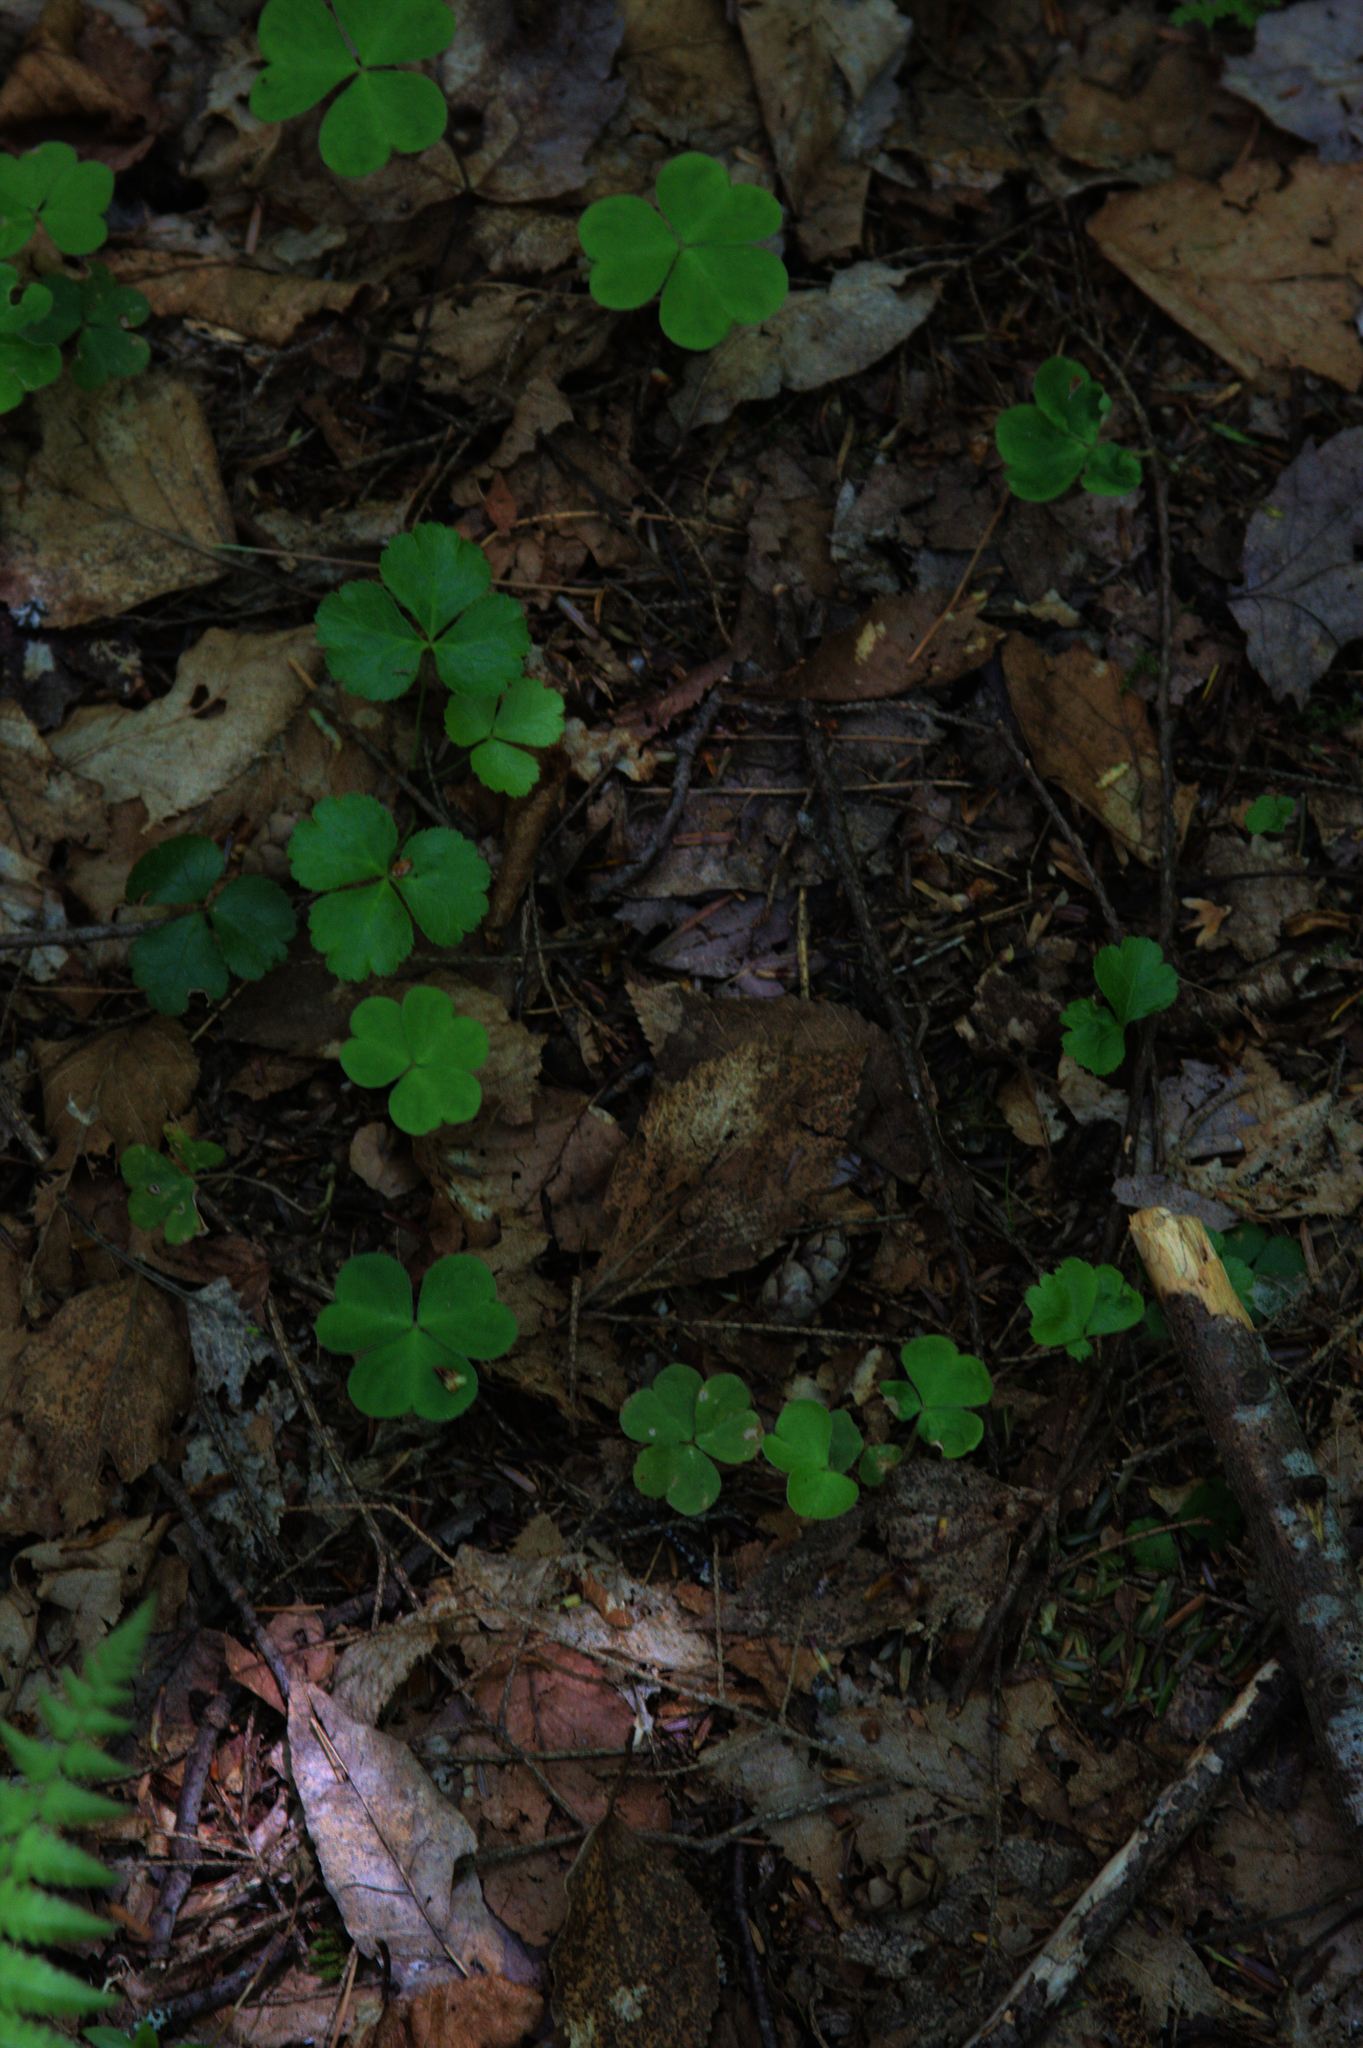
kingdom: Plantae
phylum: Tracheophyta
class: Magnoliopsida
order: Ranunculales
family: Ranunculaceae
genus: Coptis
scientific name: Coptis trifolia
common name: Canker-root
